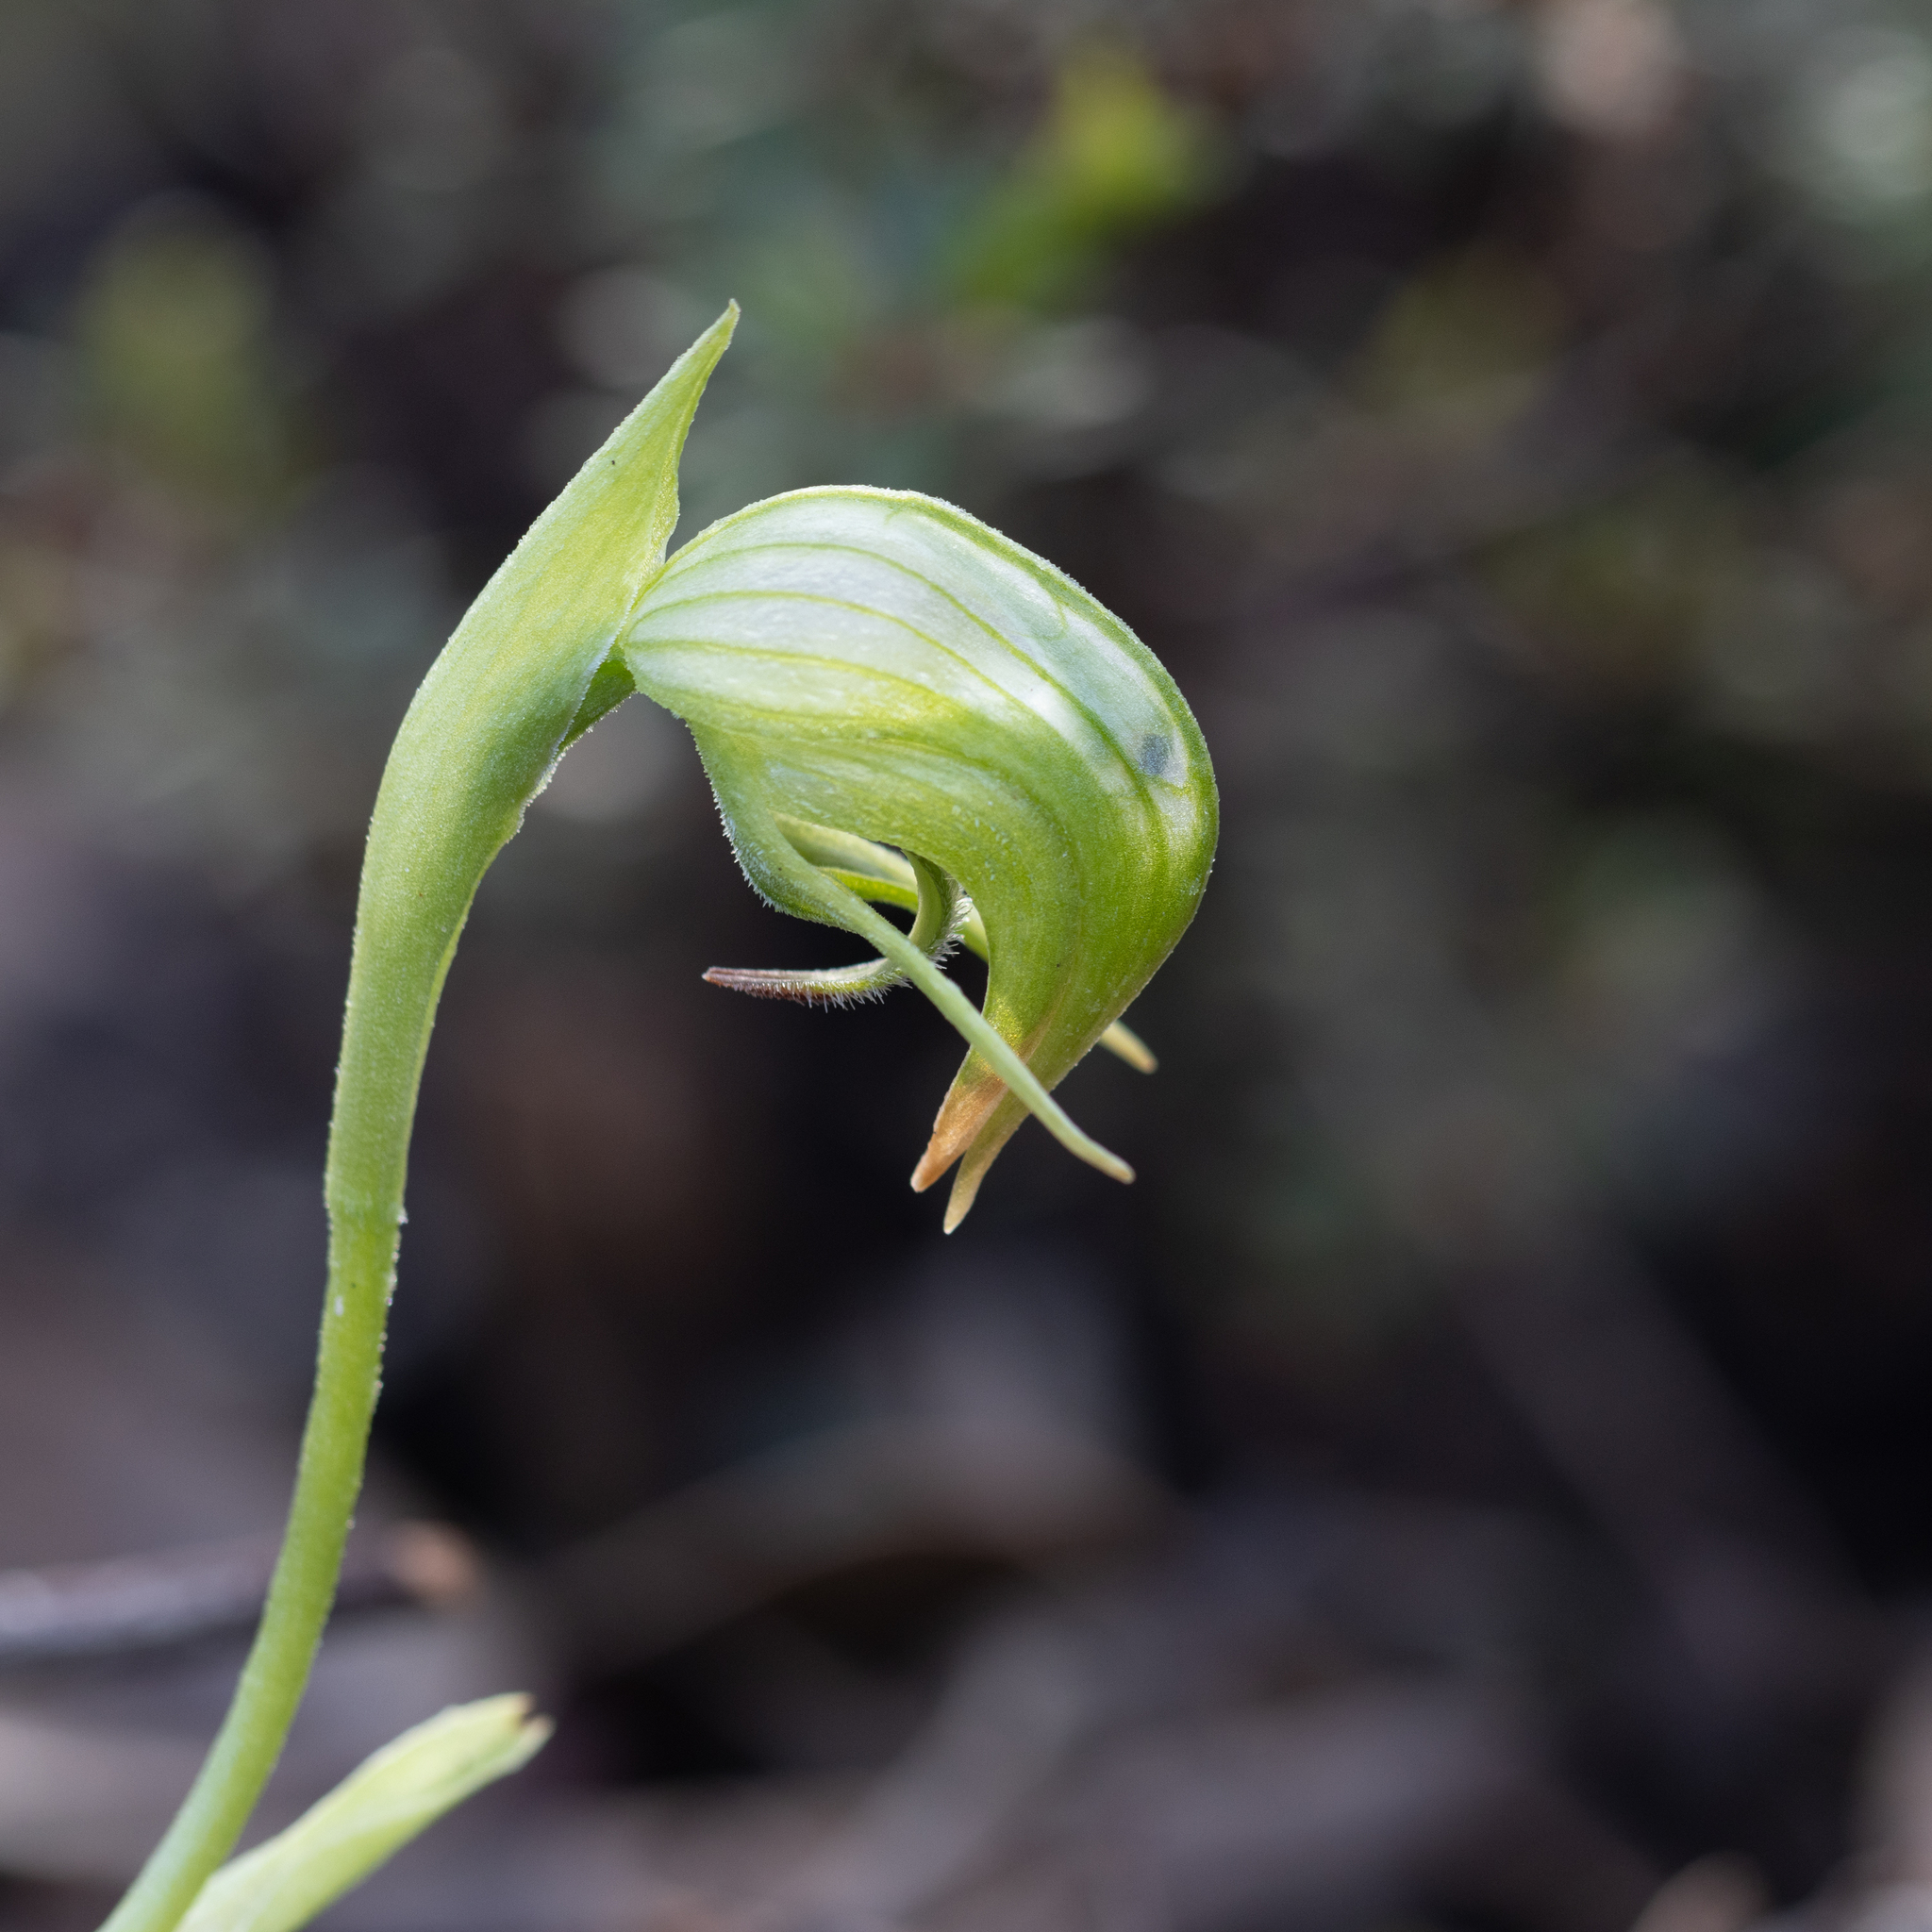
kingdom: Plantae
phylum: Tracheophyta
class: Liliopsida
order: Asparagales
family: Orchidaceae
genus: Pterostylis
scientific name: Pterostylis nutans
